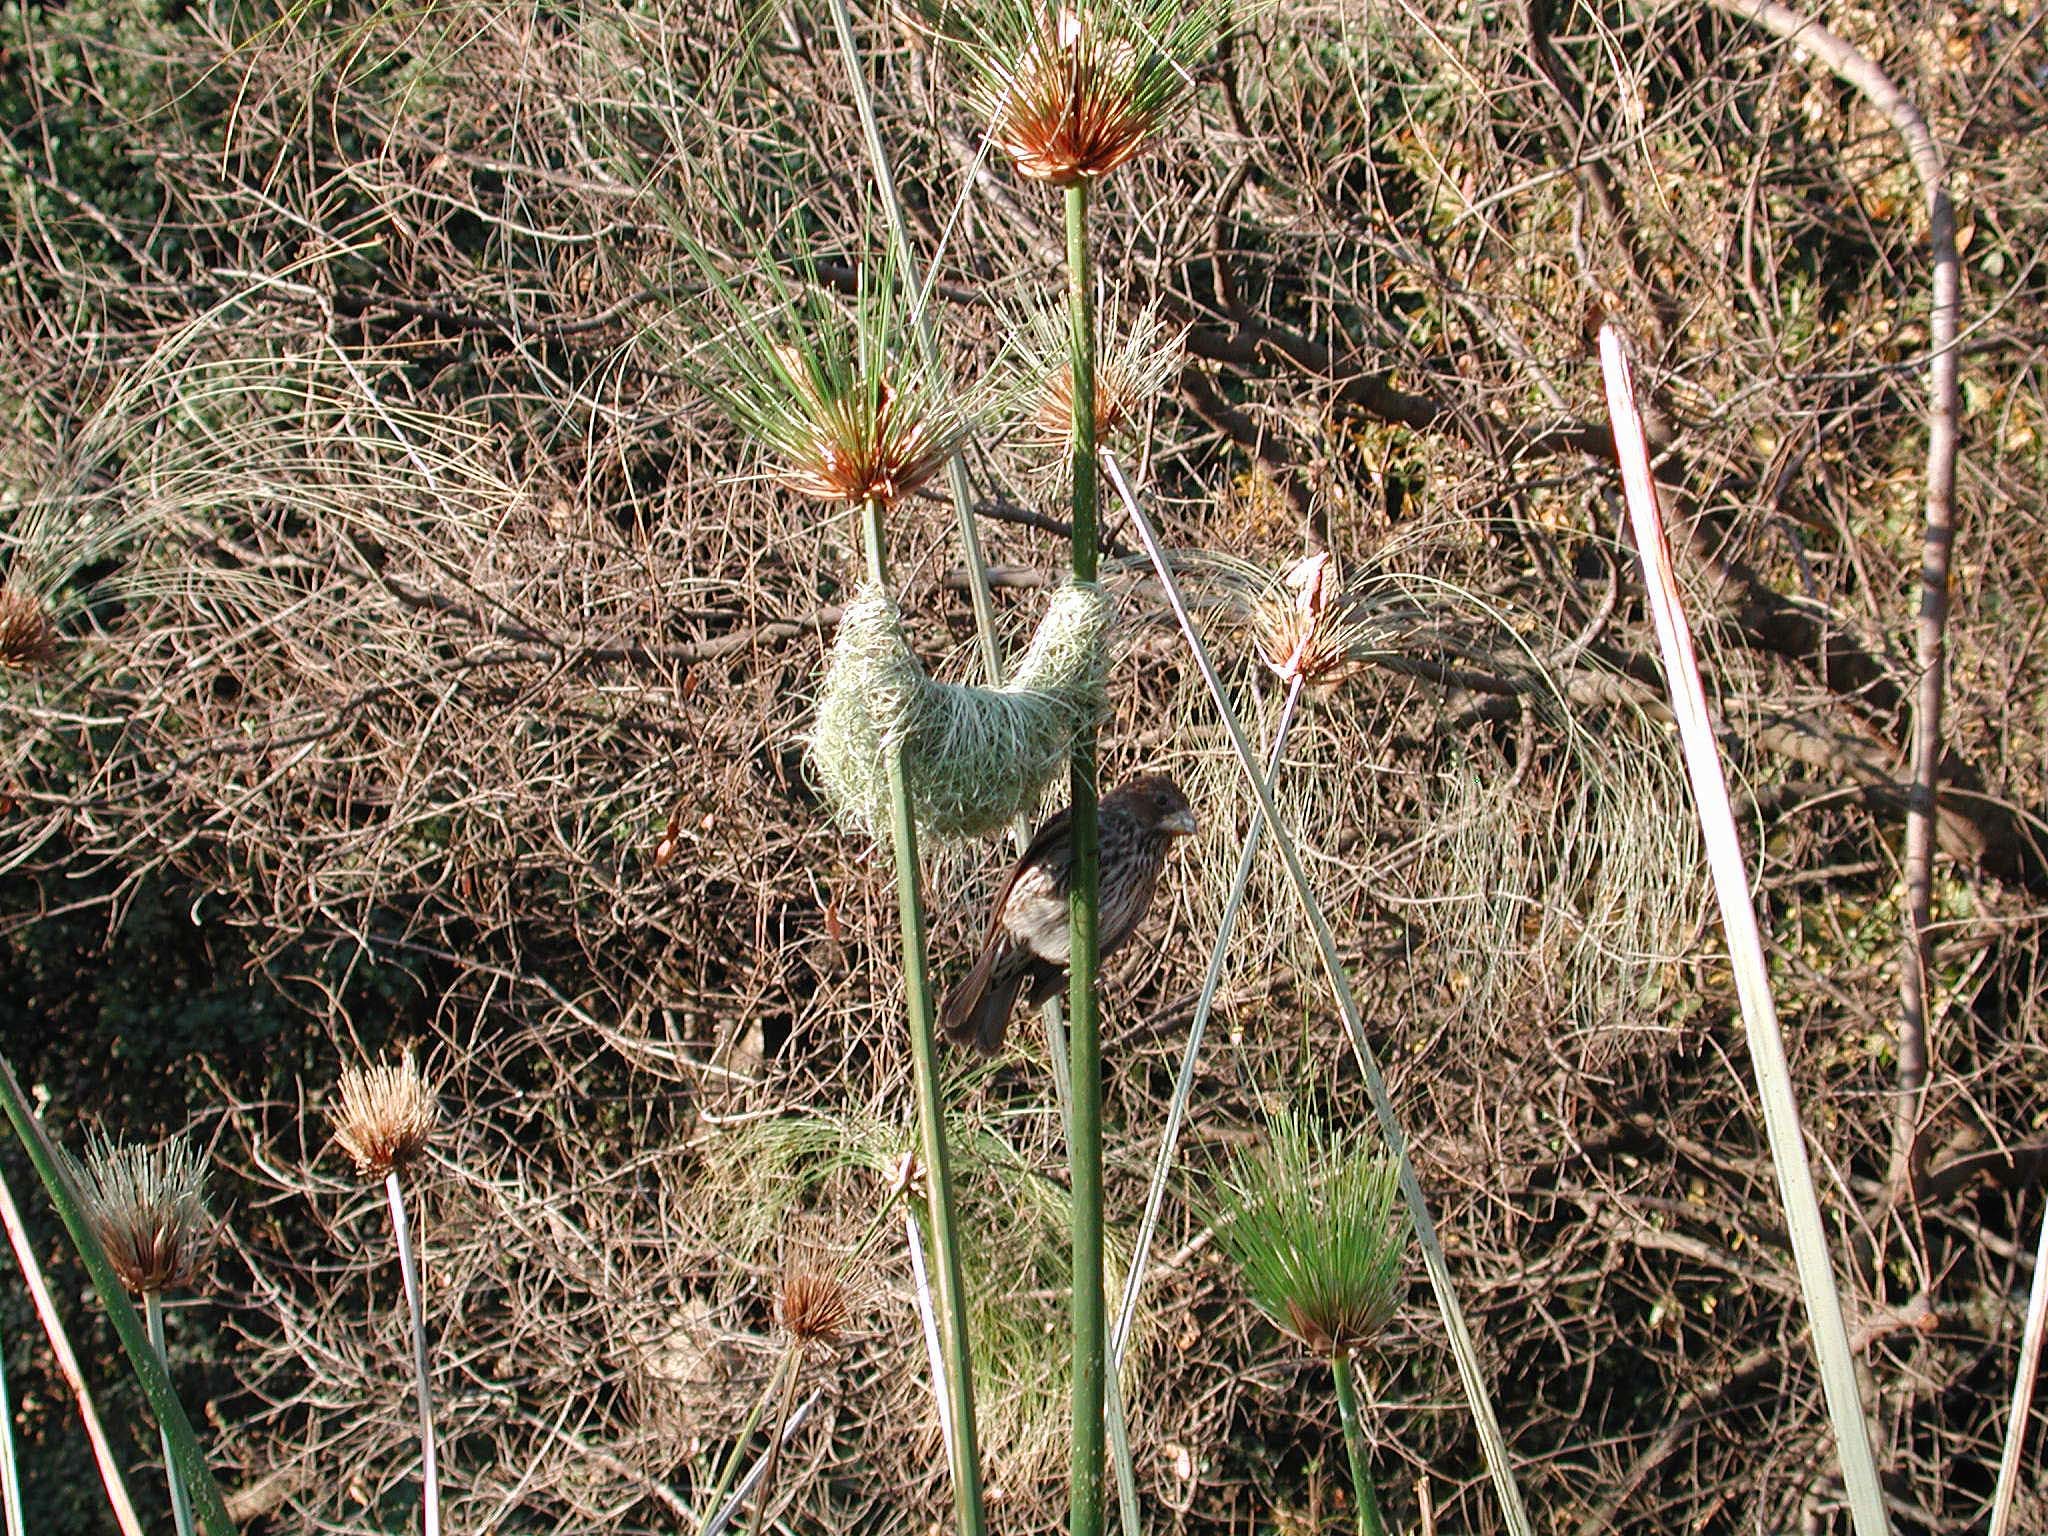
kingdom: Animalia
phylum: Chordata
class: Aves
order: Passeriformes
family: Ploceidae
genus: Amblyospiza
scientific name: Amblyospiza albifrons
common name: Thick-billed weaver
